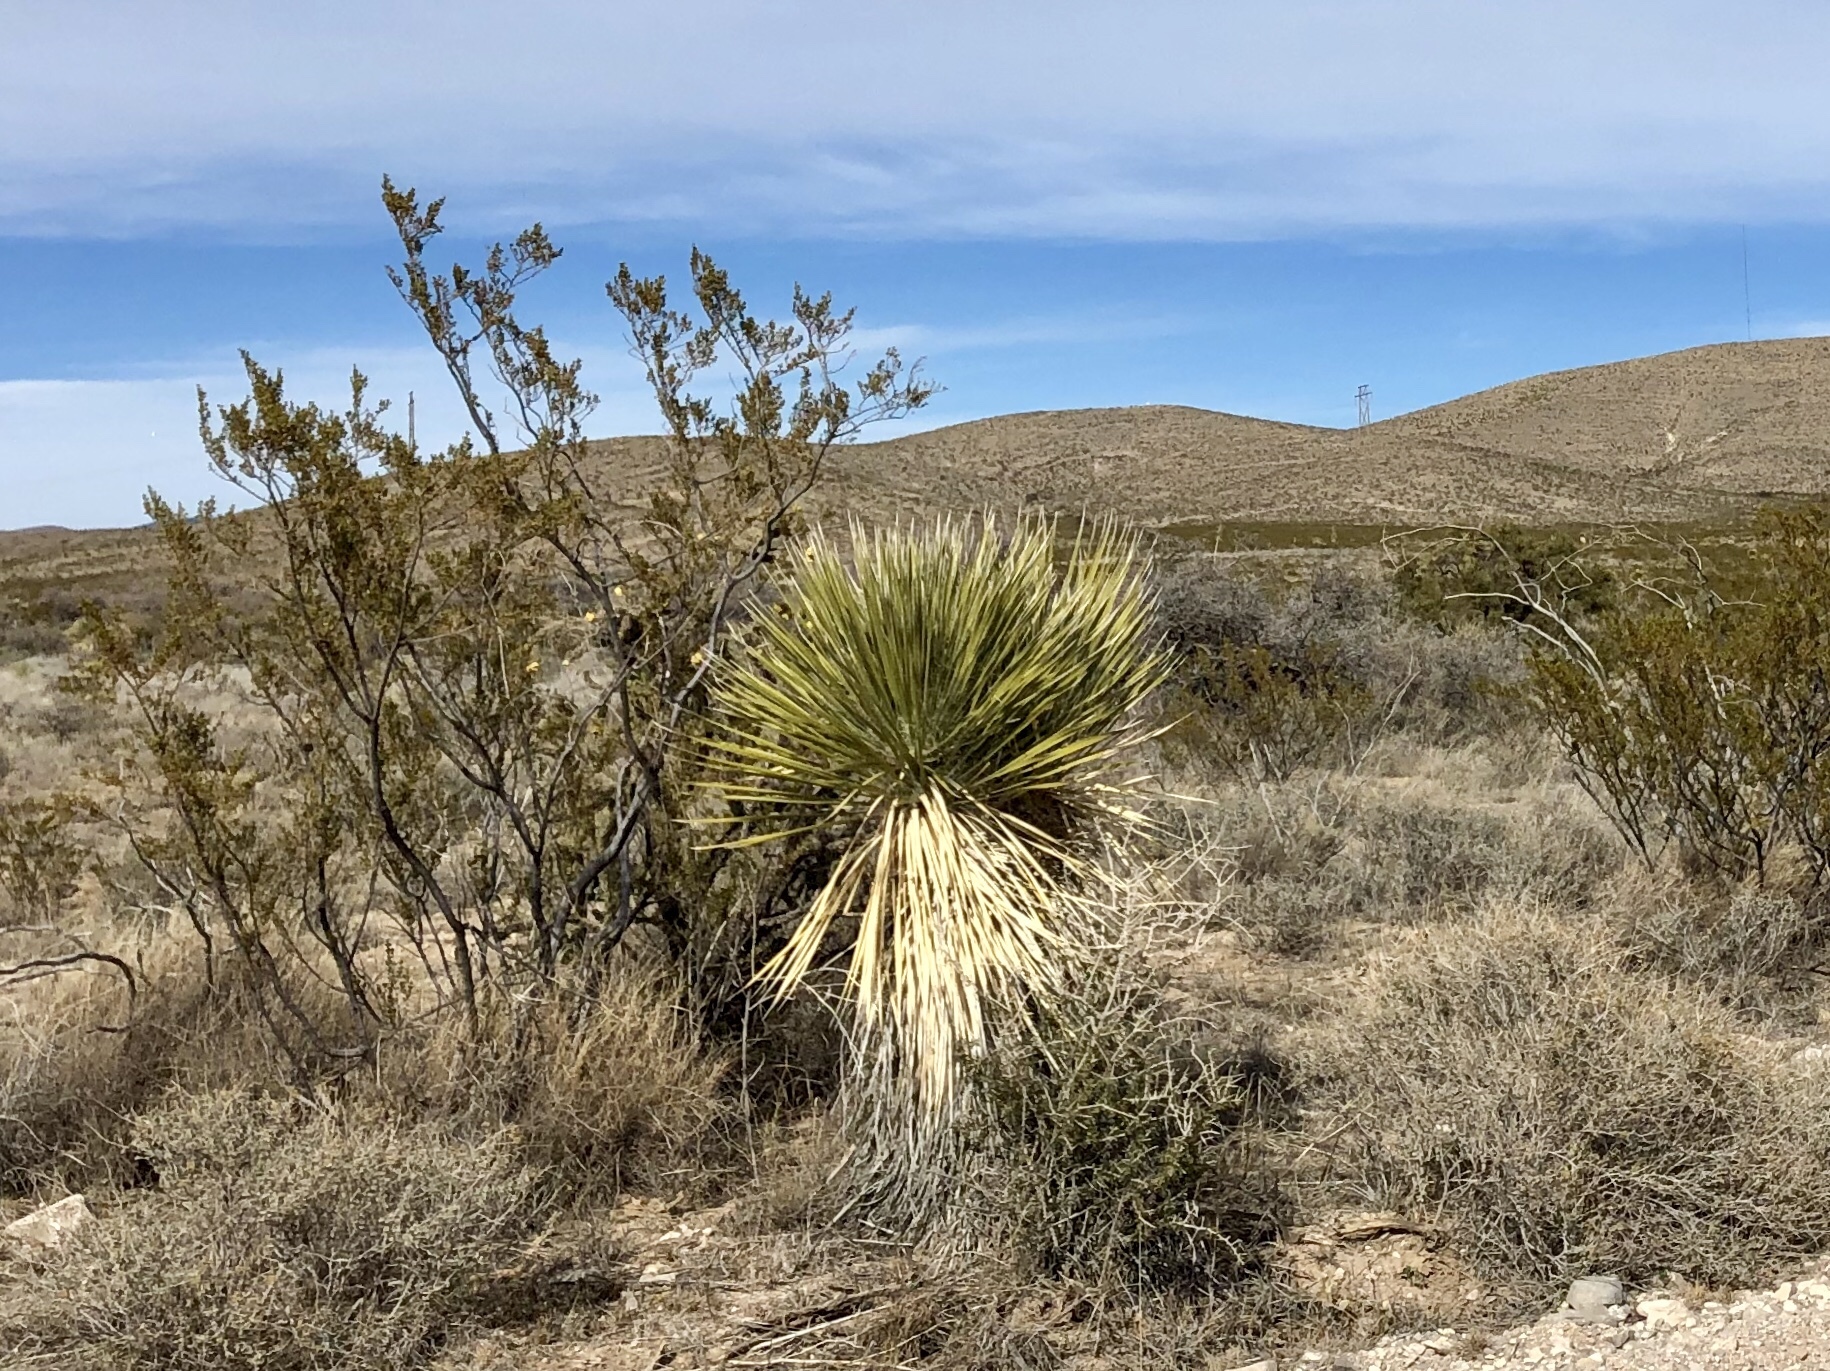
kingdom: Plantae
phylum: Tracheophyta
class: Liliopsida
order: Asparagales
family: Asparagaceae
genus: Yucca
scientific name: Yucca elata
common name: Palmella
